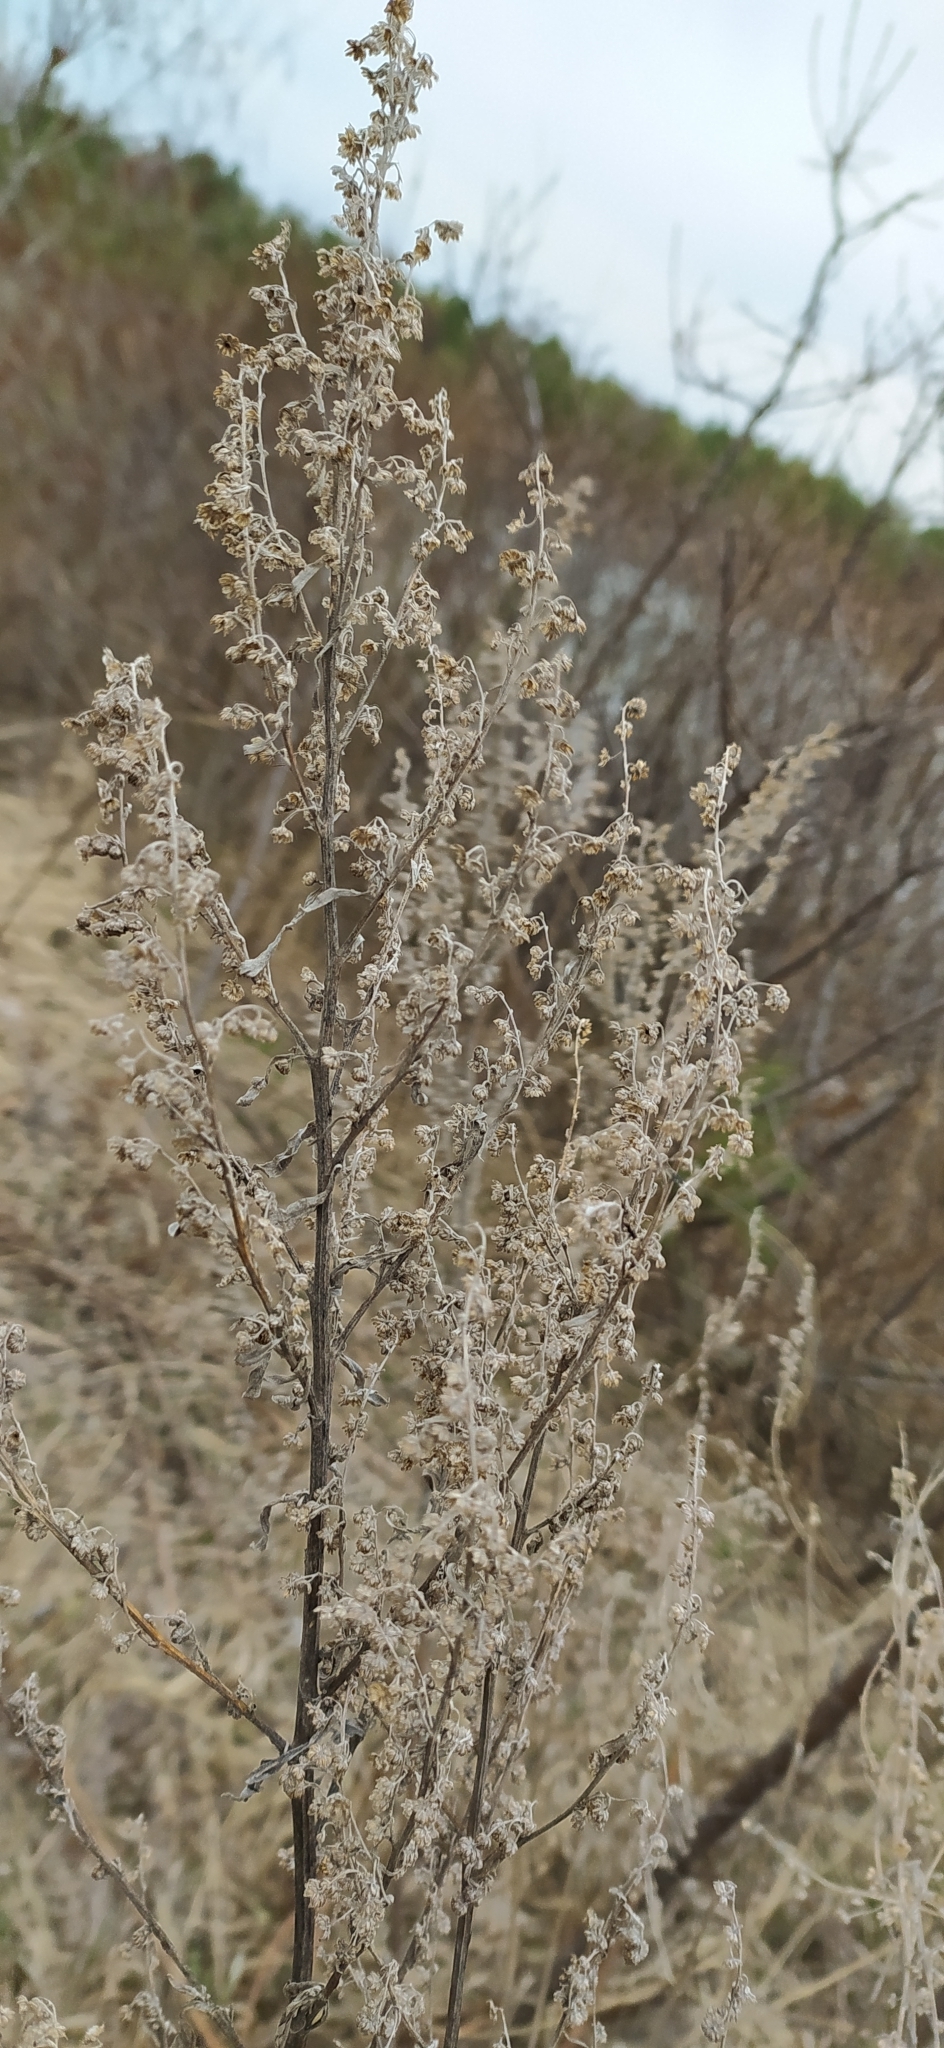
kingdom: Plantae
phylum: Tracheophyta
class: Magnoliopsida
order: Asterales
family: Asteraceae
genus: Artemisia
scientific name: Artemisia absinthium
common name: Wormwood
